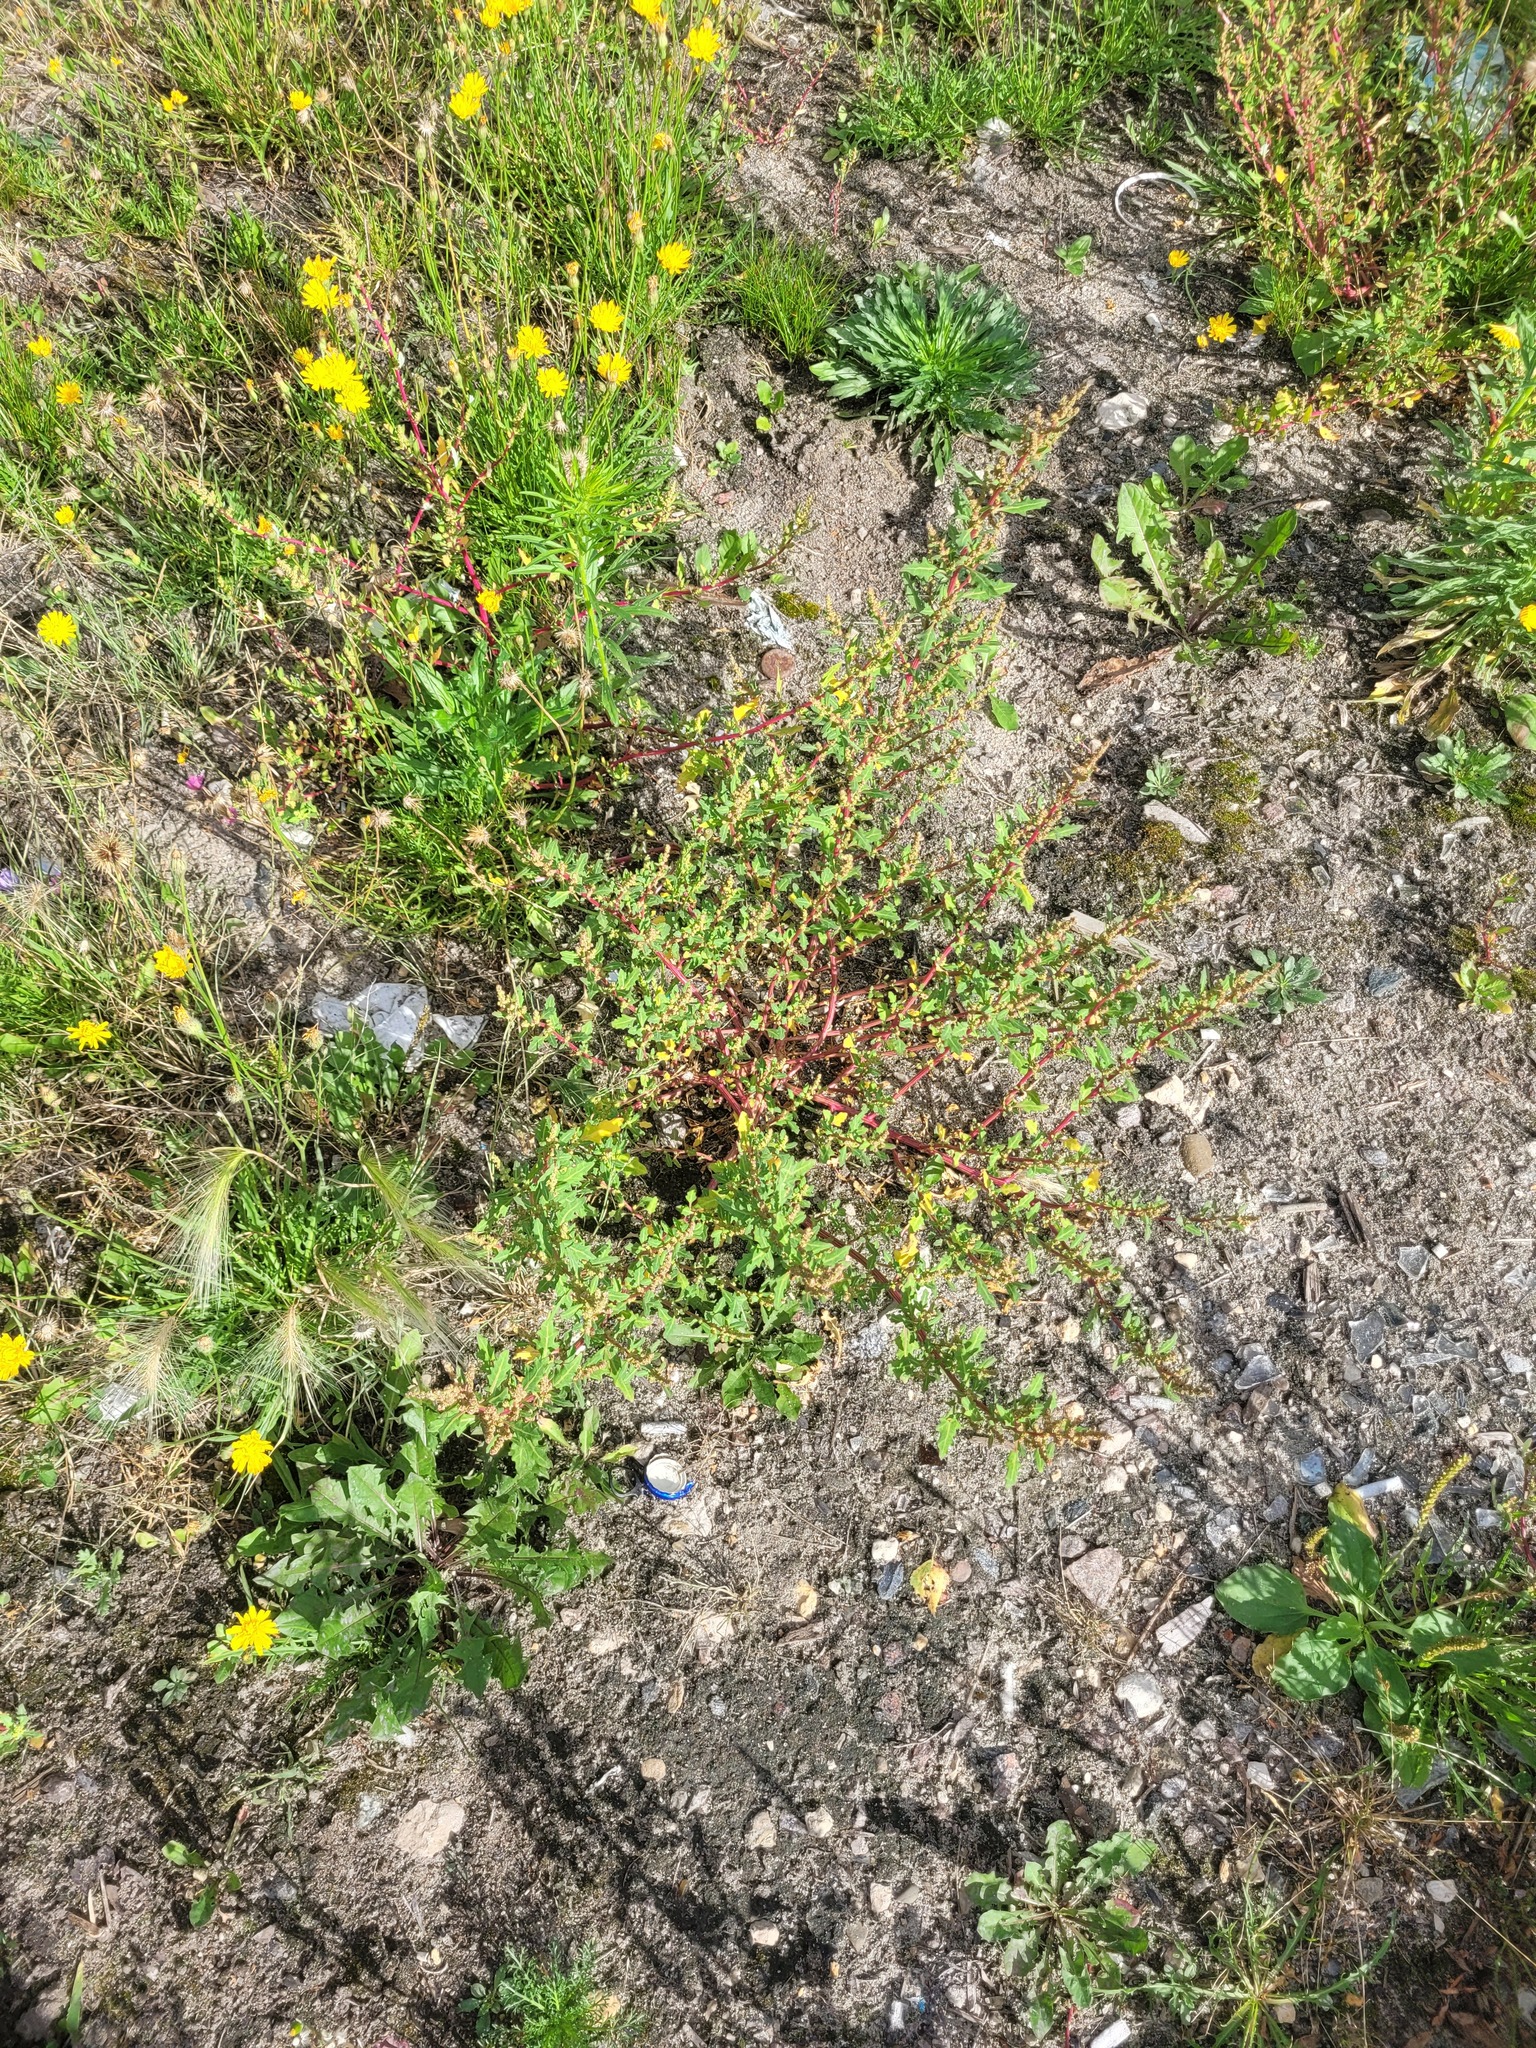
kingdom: Plantae
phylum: Tracheophyta
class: Magnoliopsida
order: Caryophyllales
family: Amaranthaceae
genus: Oxybasis
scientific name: Oxybasis glauca
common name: Glaucous goosefoot
